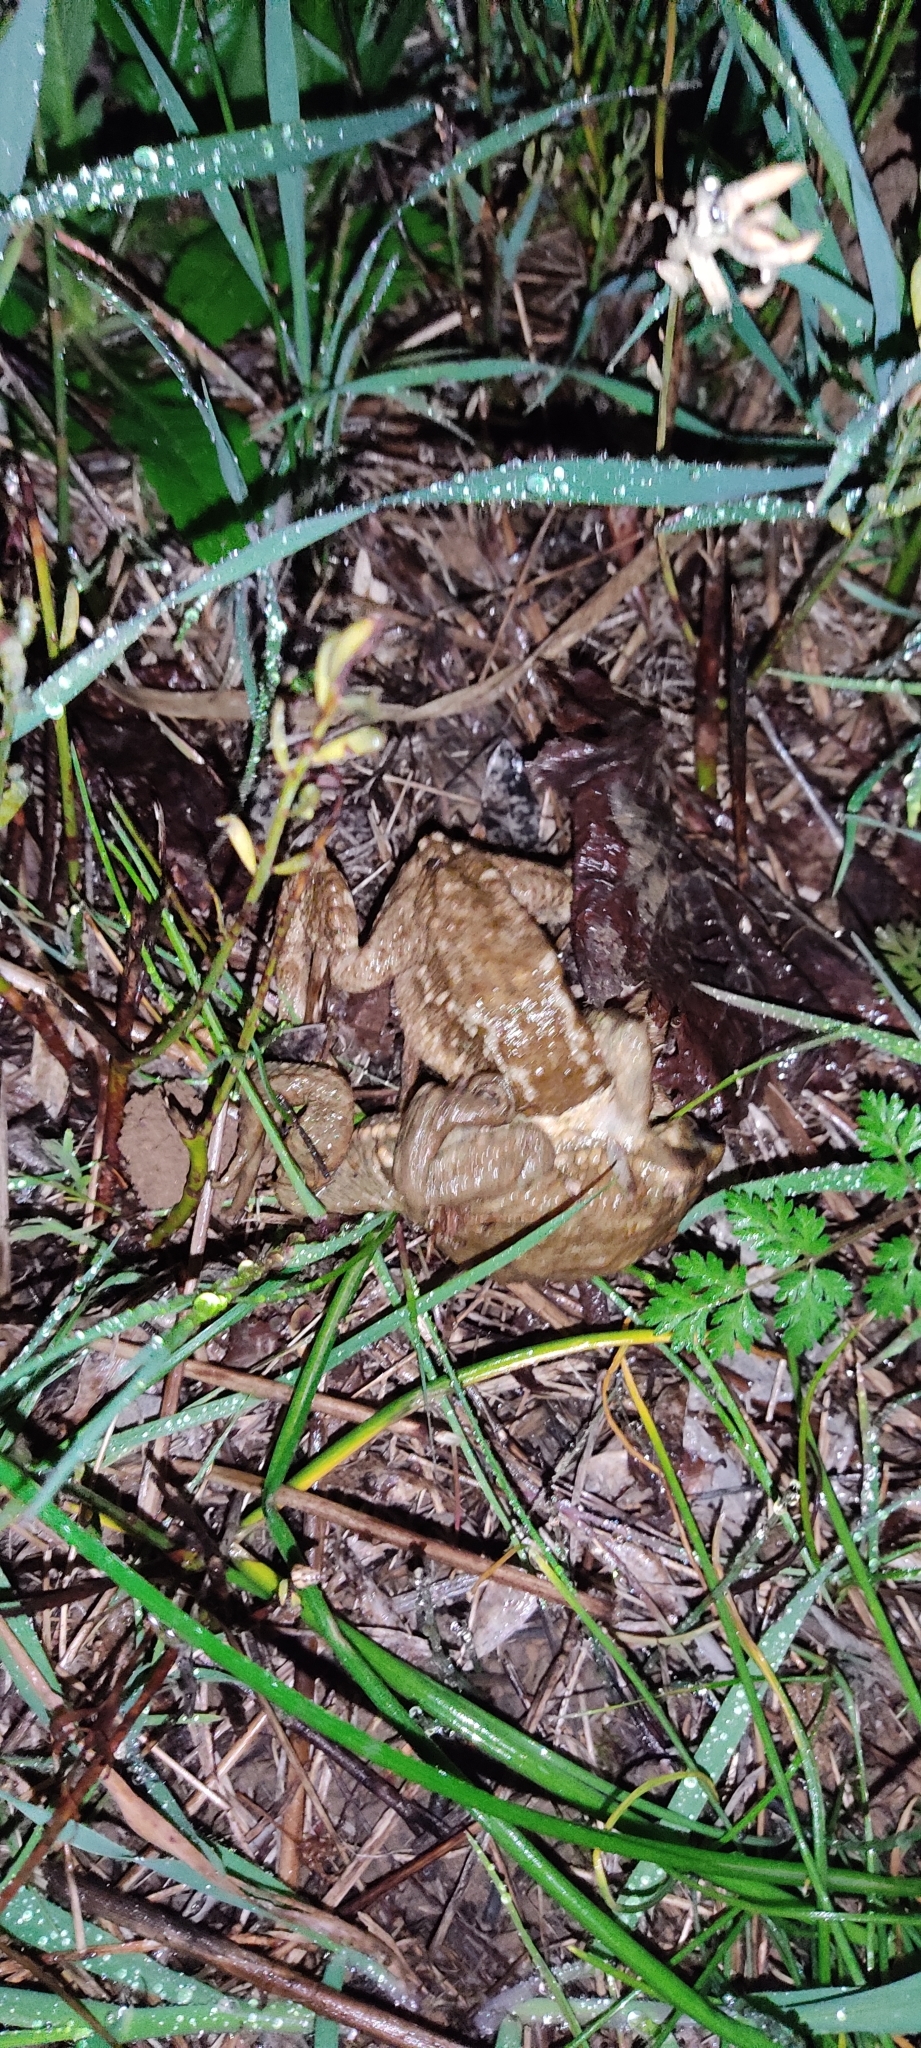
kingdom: Animalia
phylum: Chordata
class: Amphibia
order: Anura
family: Bufonidae
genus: Bufo
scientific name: Bufo spinosus
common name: Western common toad
